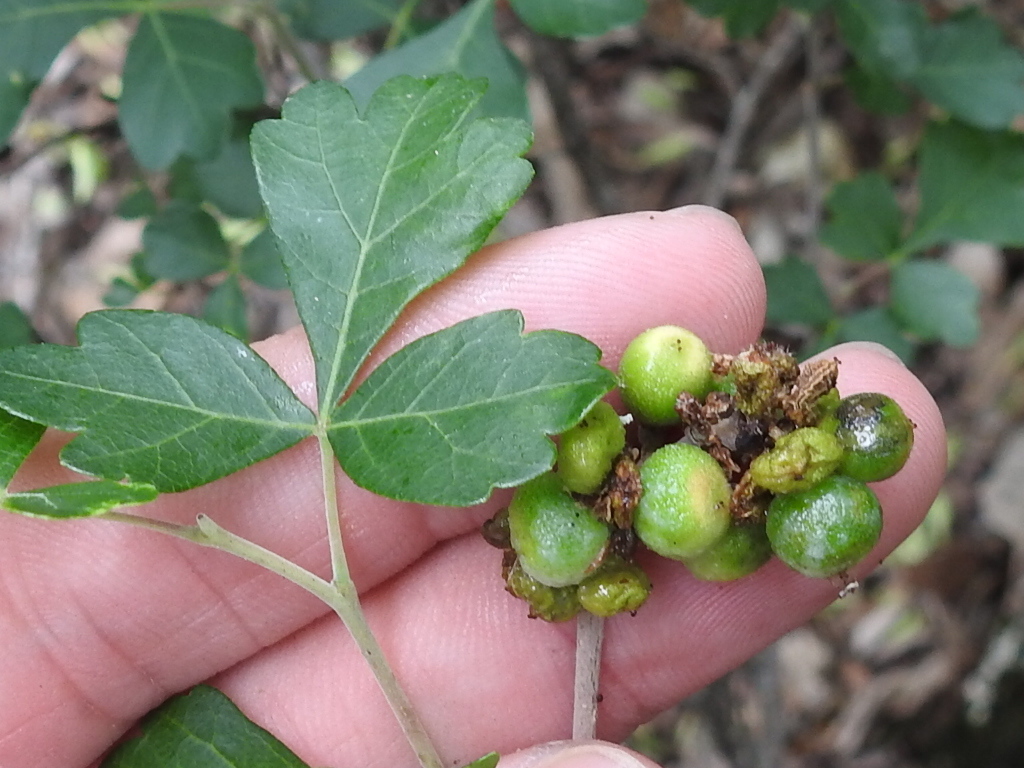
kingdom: Plantae
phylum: Tracheophyta
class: Magnoliopsida
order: Sapindales
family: Anacardiaceae
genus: Rhus
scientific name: Rhus aromatica
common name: Aromatic sumac
